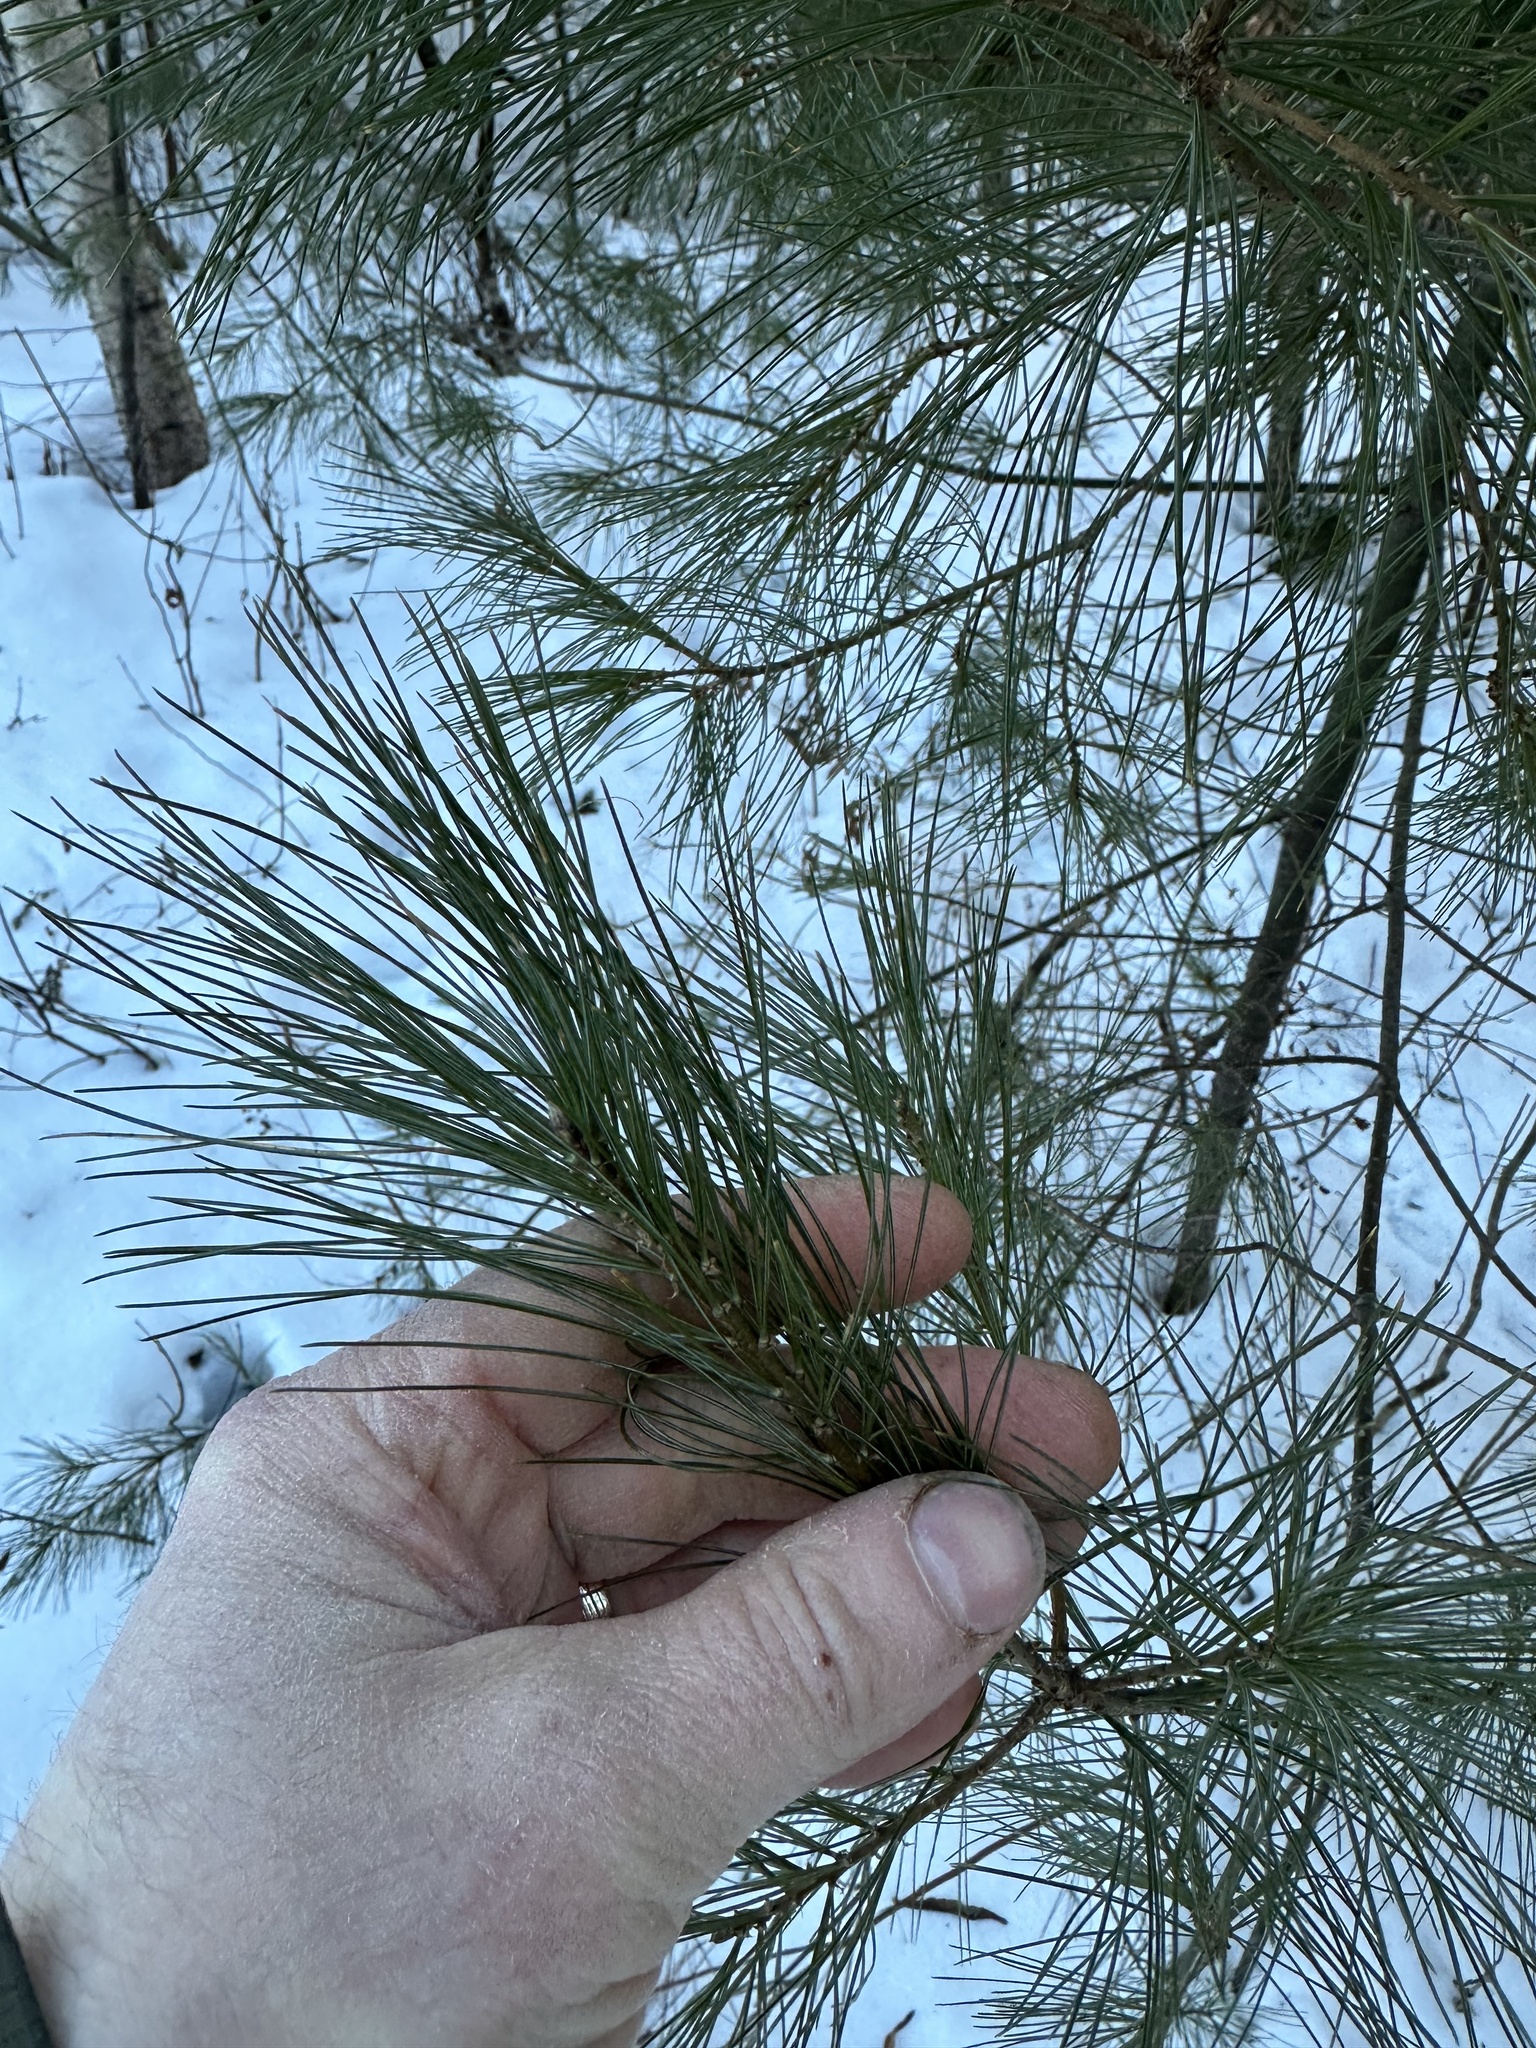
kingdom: Plantae
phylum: Tracheophyta
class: Pinopsida
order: Pinales
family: Pinaceae
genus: Pinus
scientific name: Pinus strobus
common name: Weymouth pine
